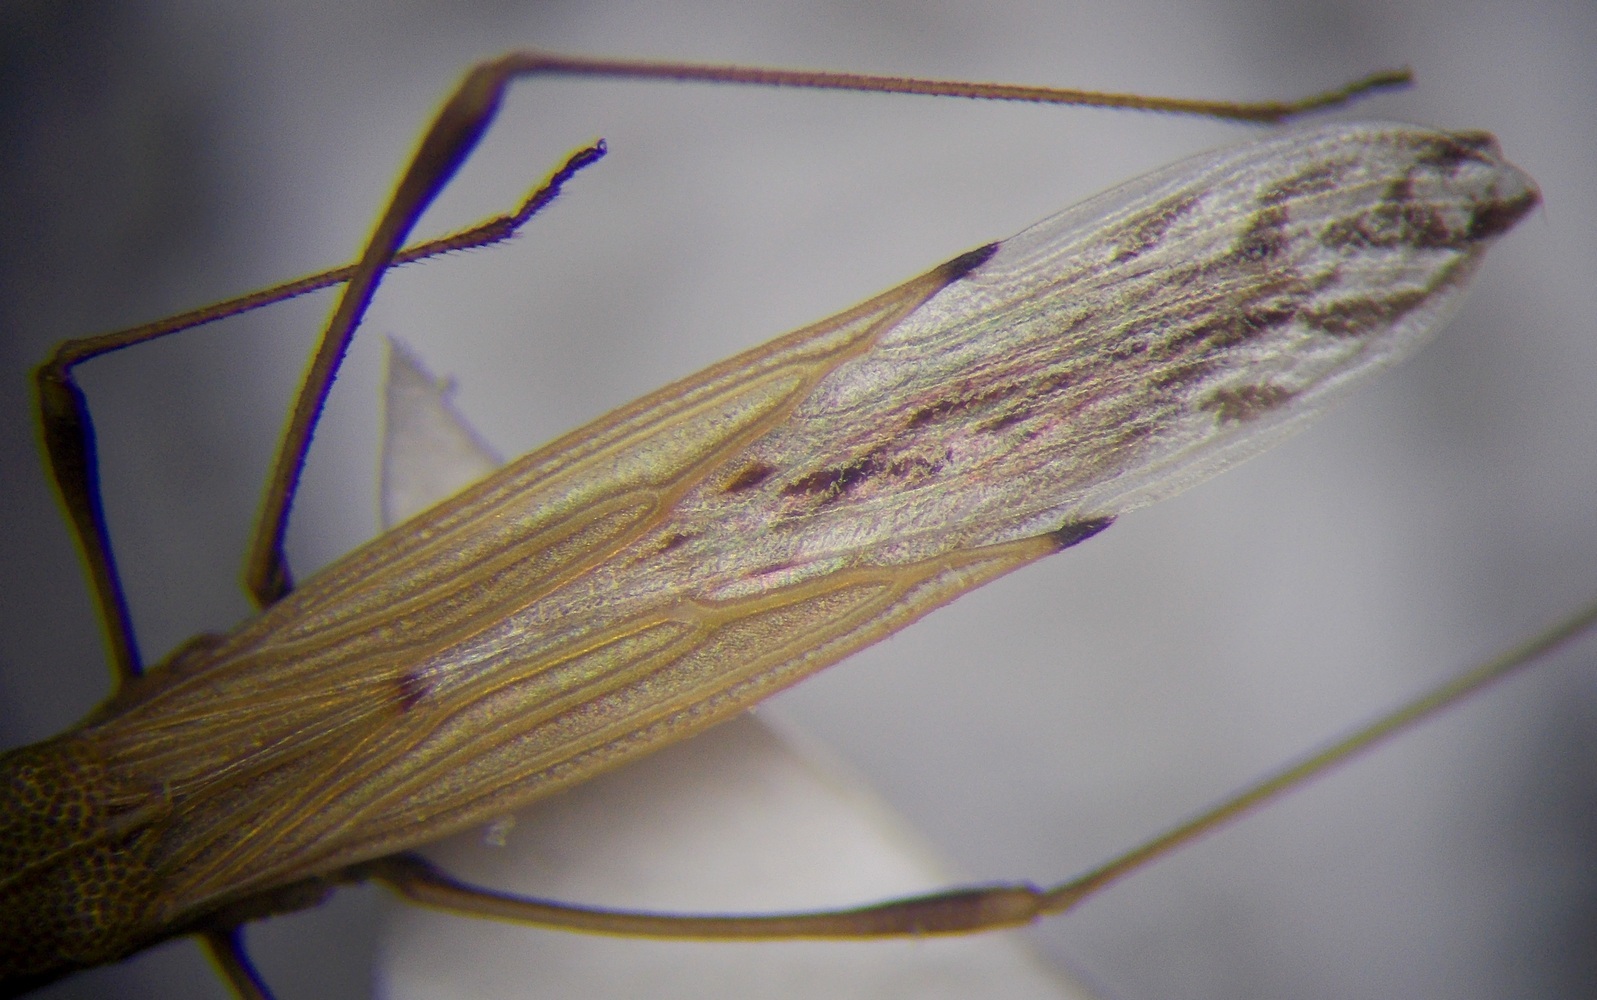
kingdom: Animalia
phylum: Arthropoda
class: Insecta
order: Hemiptera
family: Berytidae
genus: Berytinus
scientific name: Berytinus geniculatus
